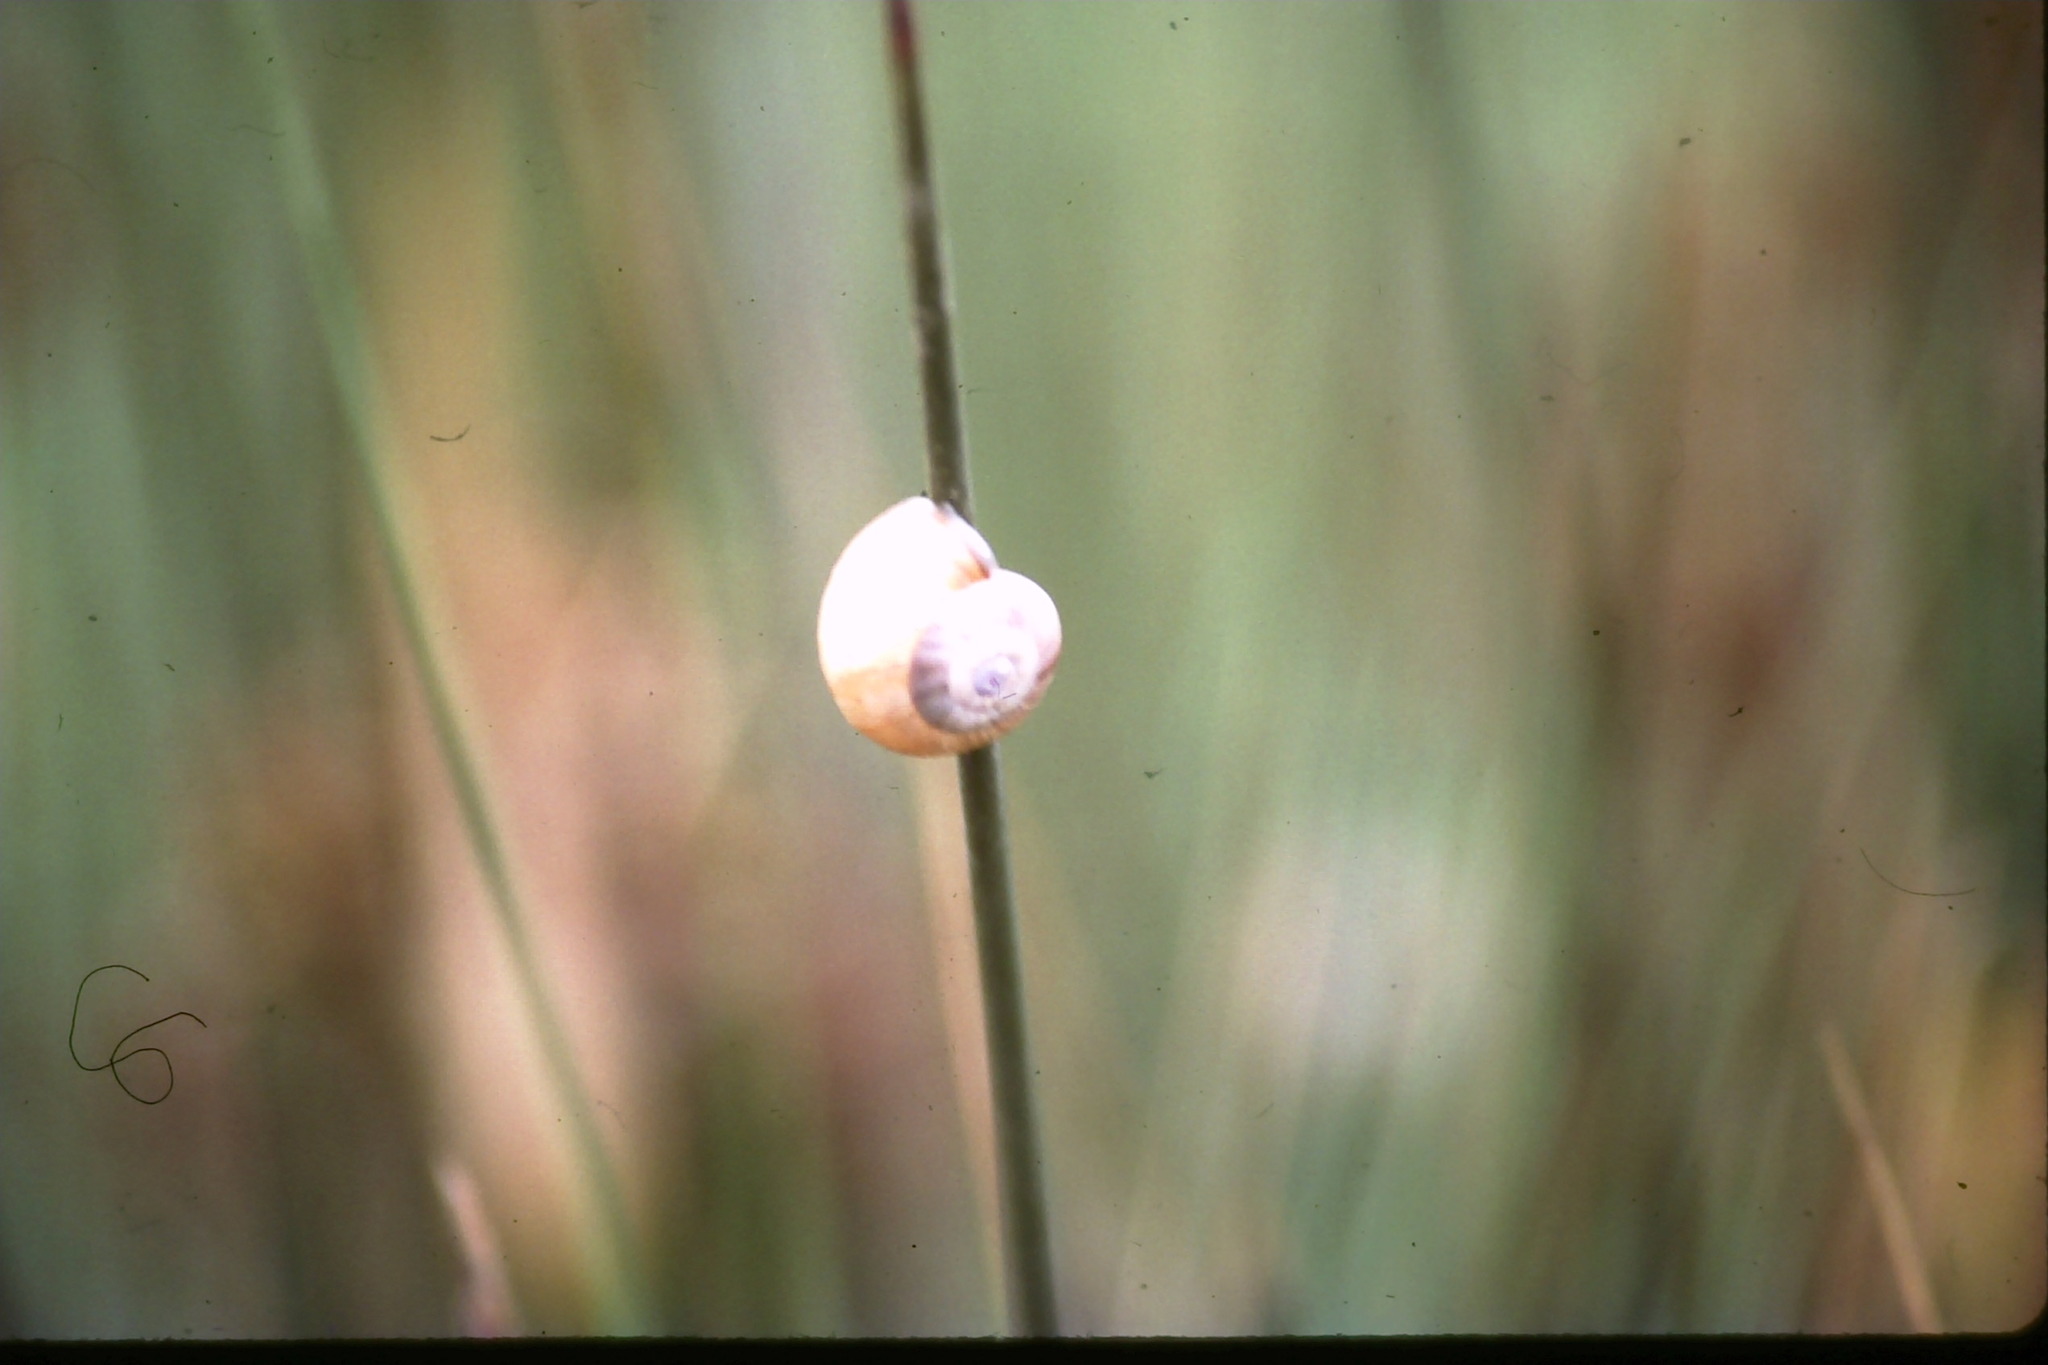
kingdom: Animalia
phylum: Mollusca
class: Gastropoda
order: Stylommatophora
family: Helicidae
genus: Theba
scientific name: Theba pisana
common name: White snail
